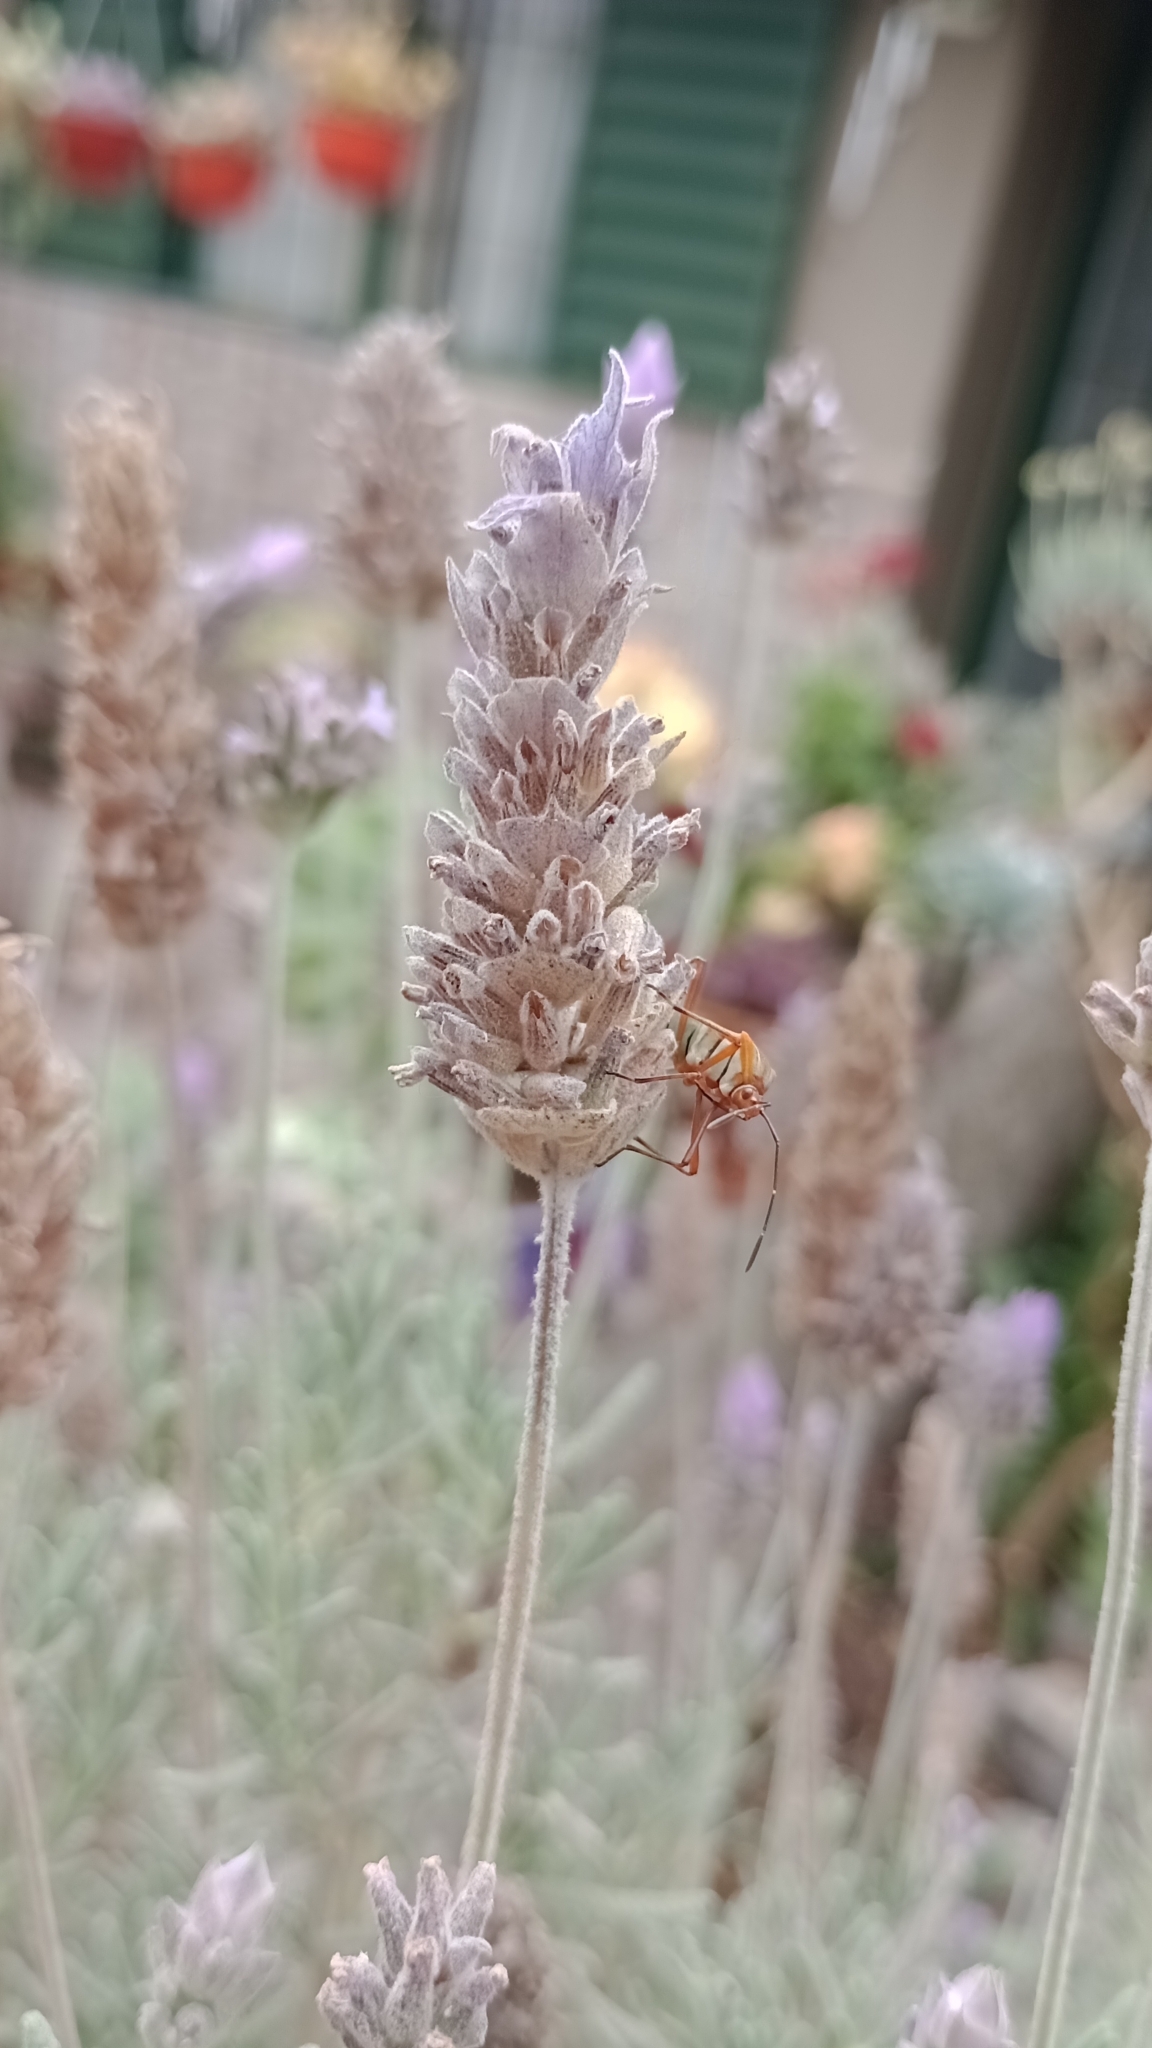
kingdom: Animalia
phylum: Arthropoda
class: Insecta
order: Hemiptera
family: Coreidae
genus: Hypselonotus
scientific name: Hypselonotus interruptus
